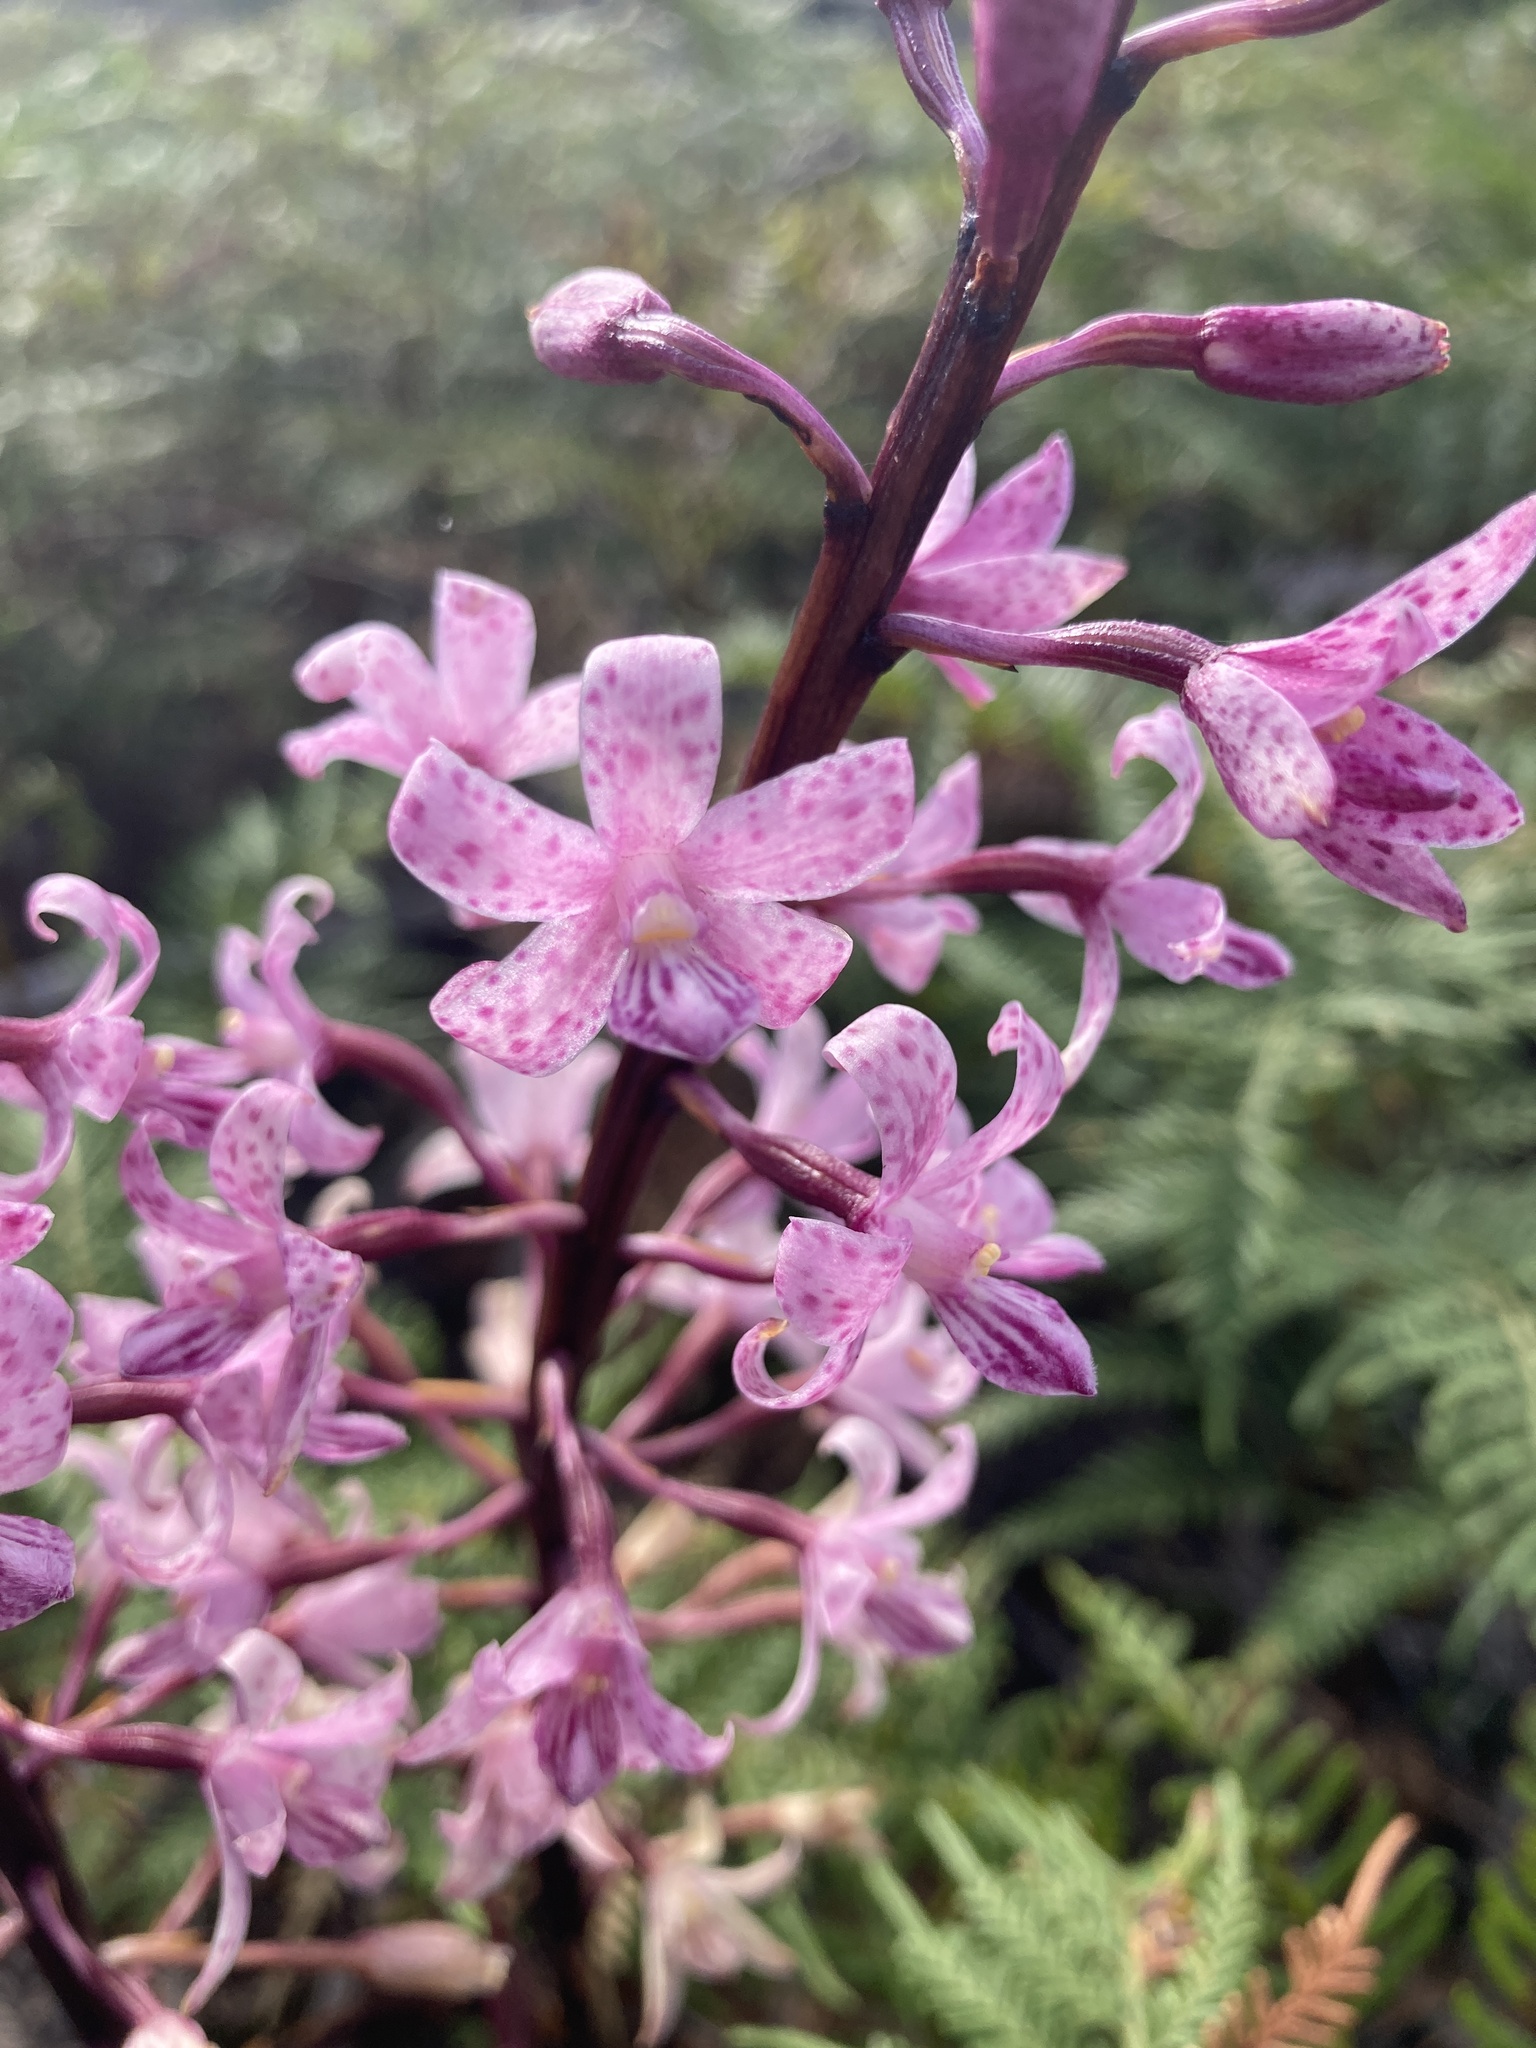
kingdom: Plantae
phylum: Tracheophyta
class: Liliopsida
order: Asparagales
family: Orchidaceae
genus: Dipodium
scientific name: Dipodium roseum
